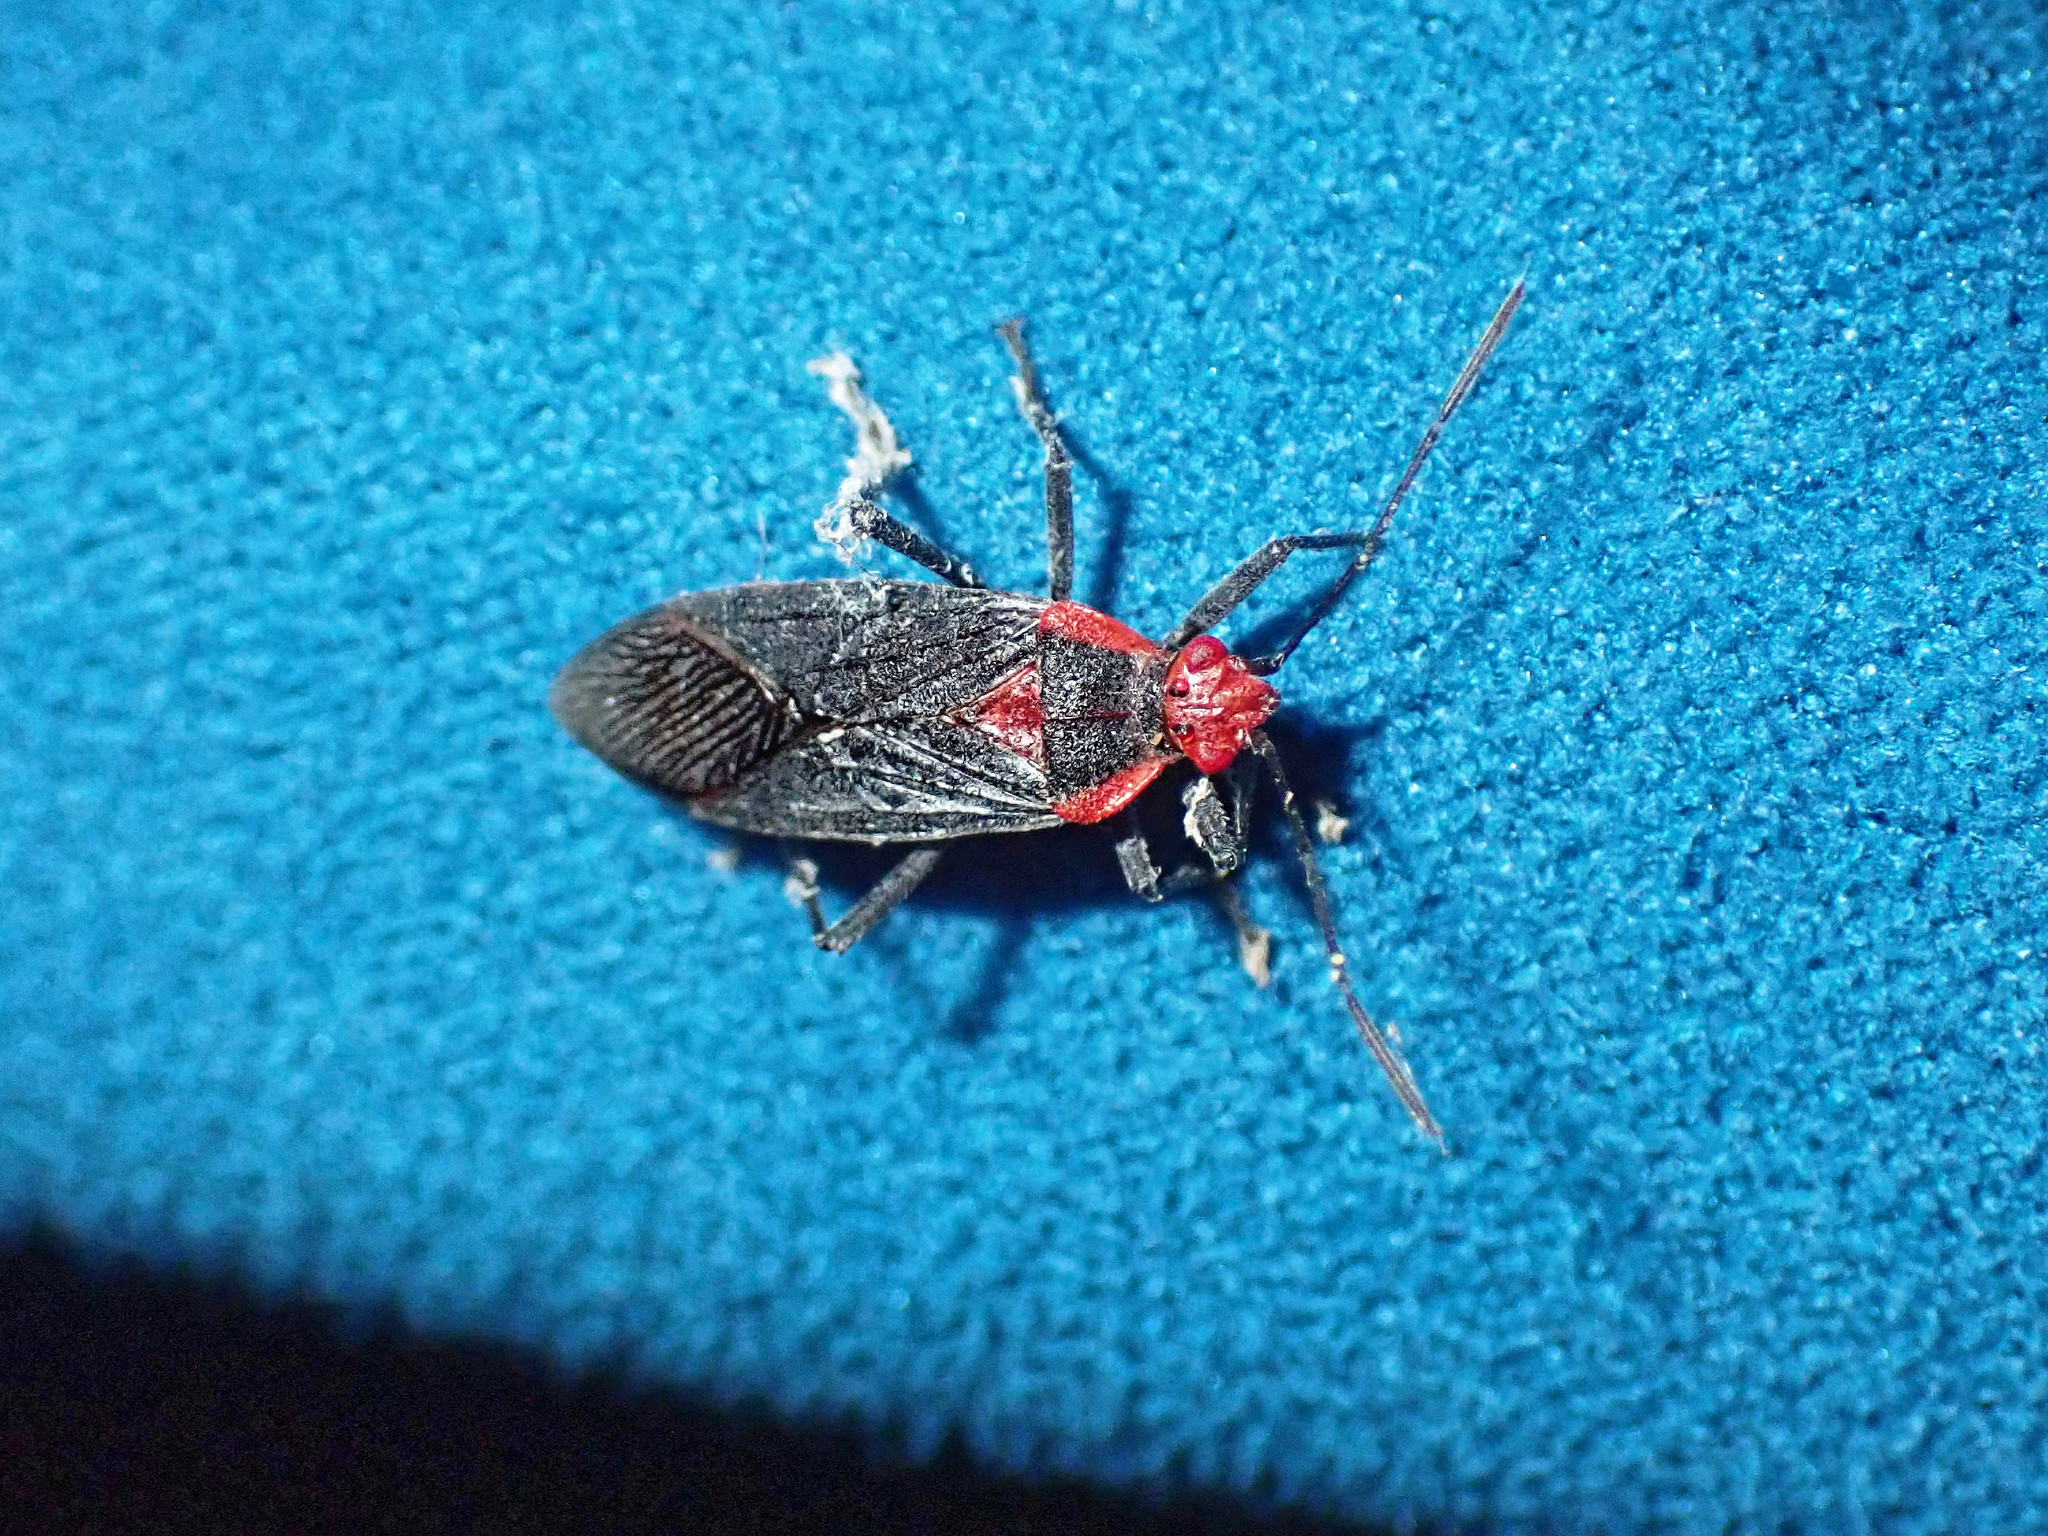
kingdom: Animalia
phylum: Arthropoda
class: Insecta
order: Hemiptera
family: Rhopalidae
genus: Jadera
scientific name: Jadera antica
